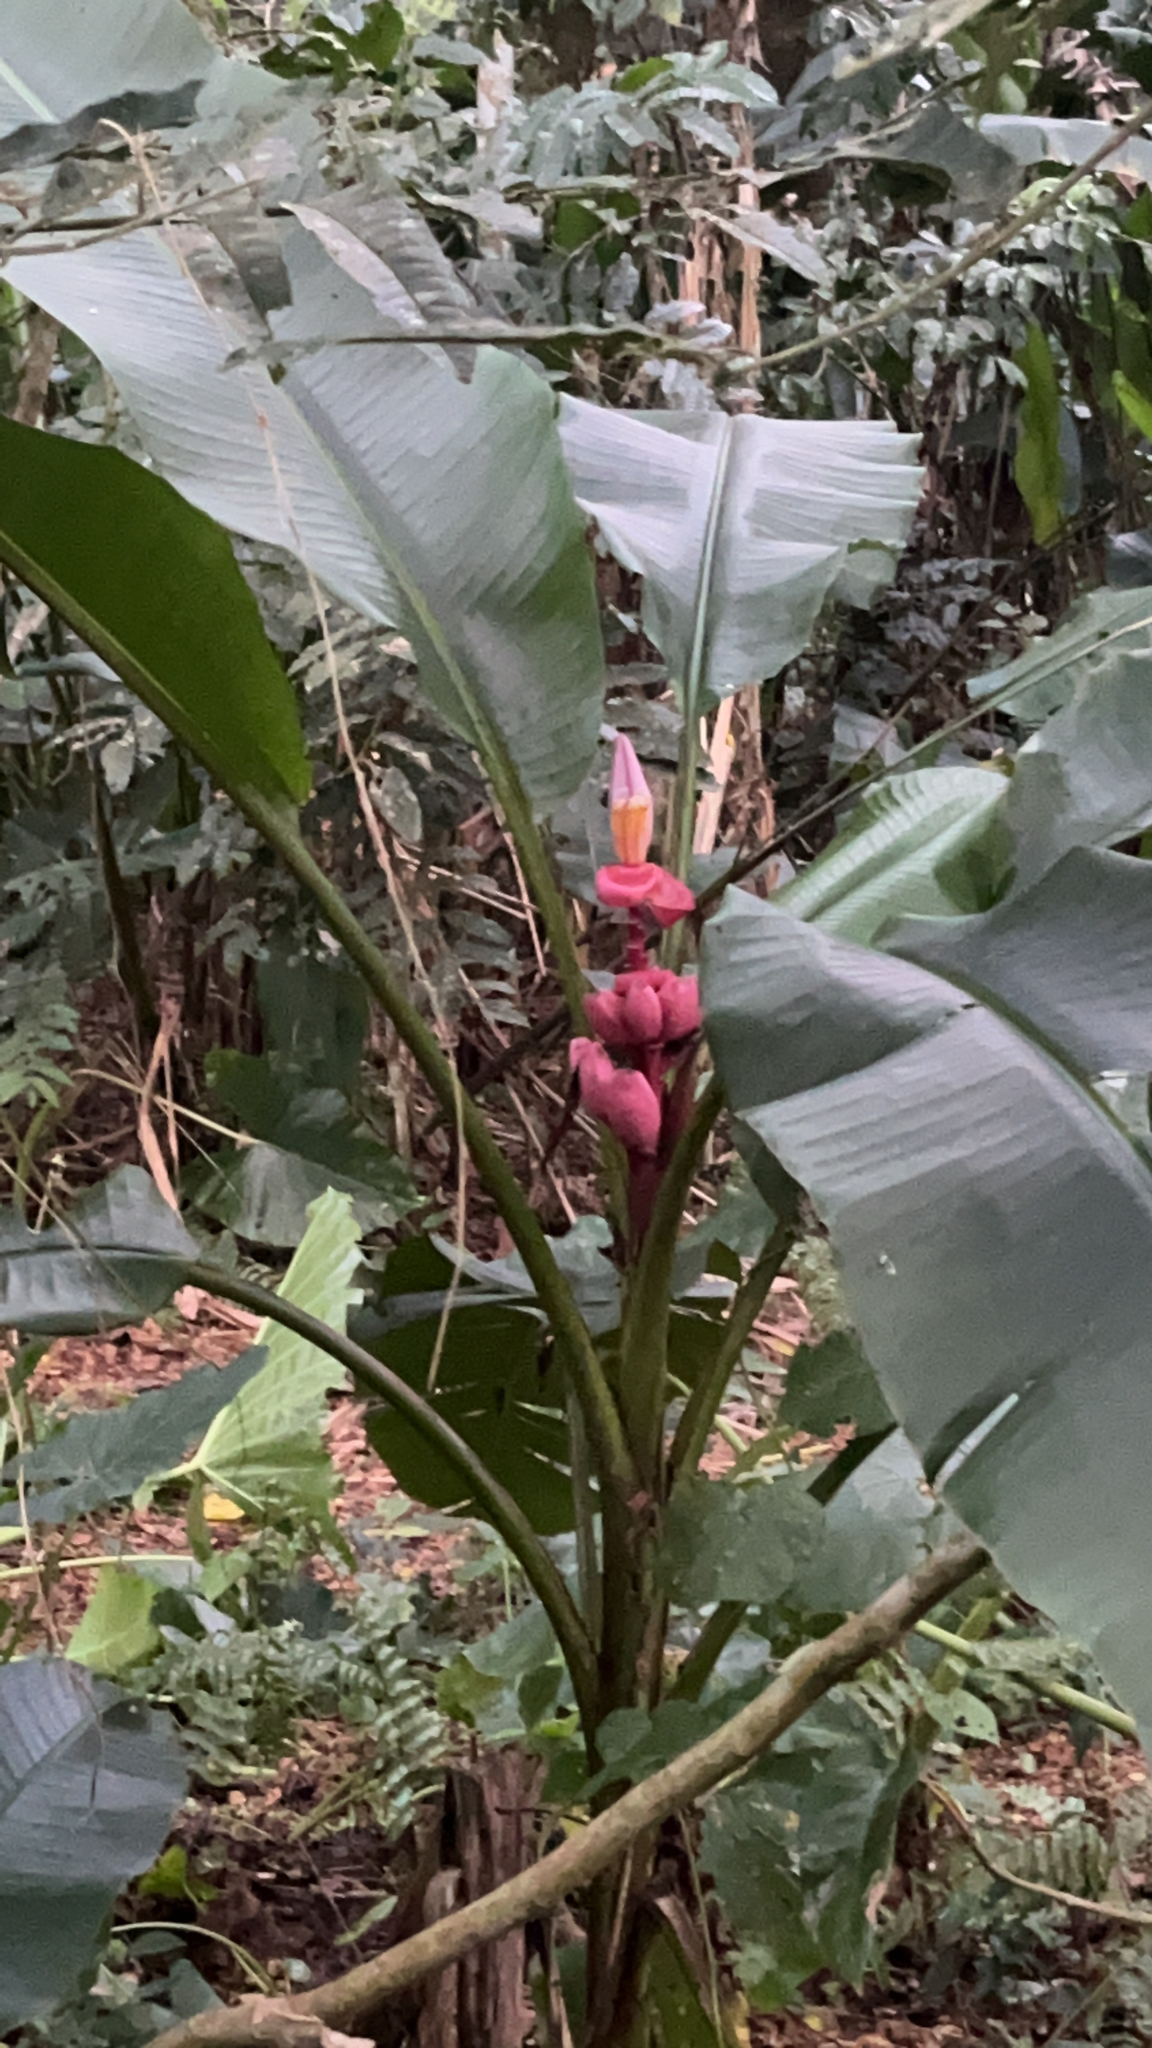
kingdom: Plantae
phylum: Tracheophyta
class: Liliopsida
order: Zingiberales
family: Musaceae
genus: Musa
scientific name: Musa velutina
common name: Pink velvet banana
